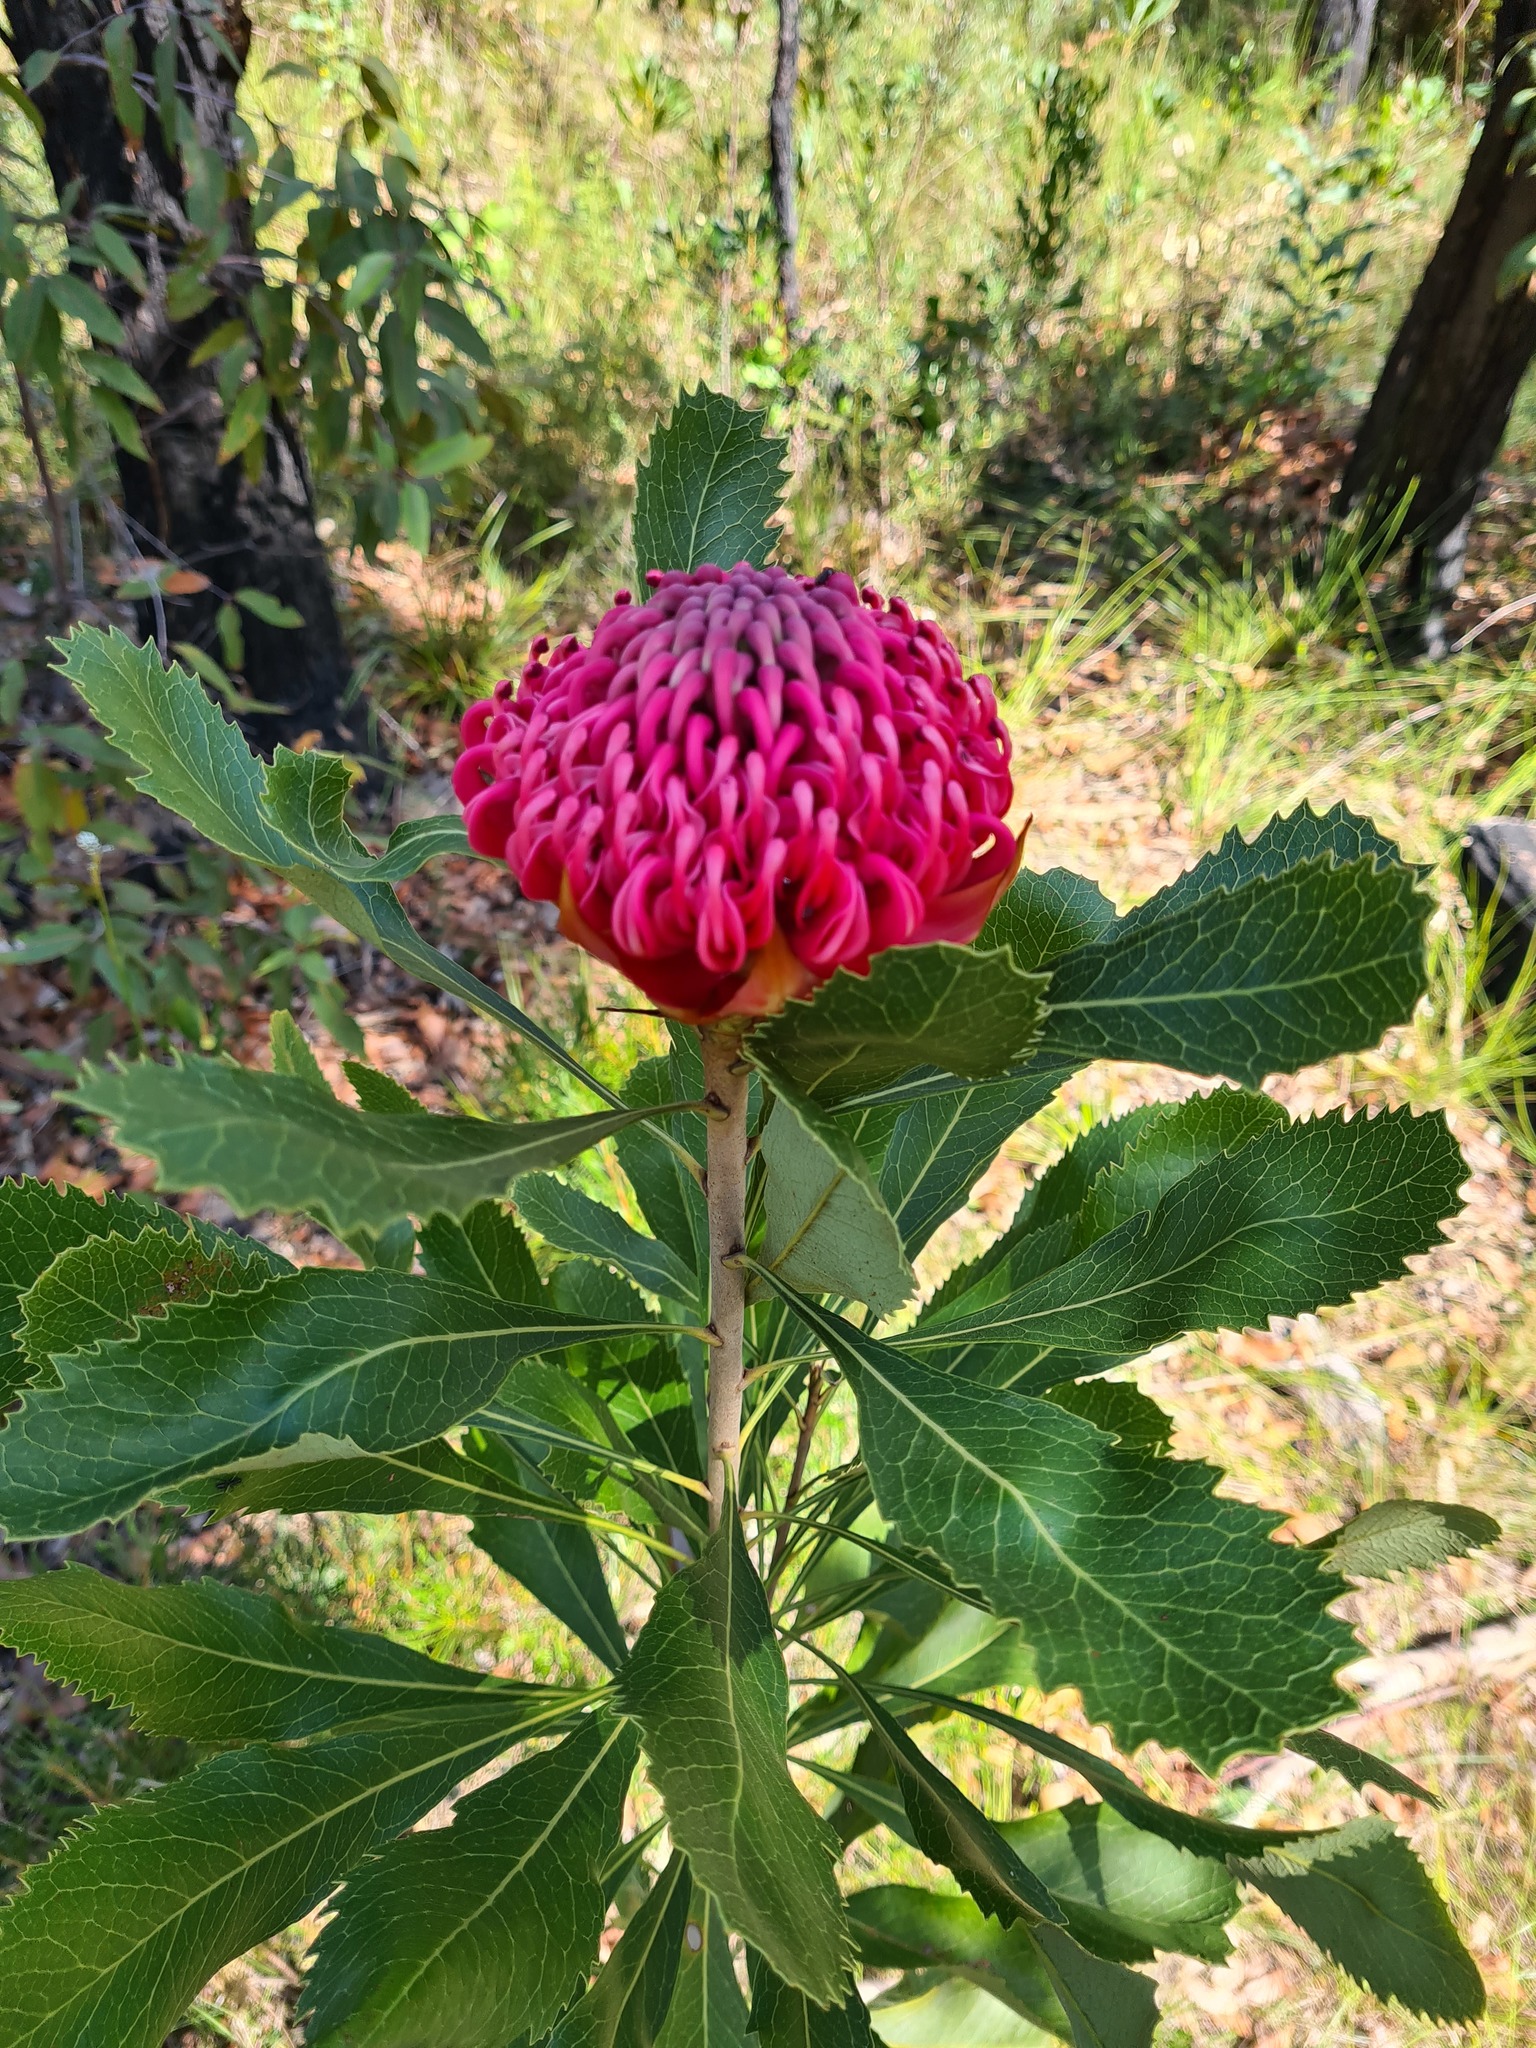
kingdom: Plantae
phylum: Tracheophyta
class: Magnoliopsida
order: Proteales
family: Proteaceae
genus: Telopea
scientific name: Telopea speciosissima
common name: New south wales waratah
